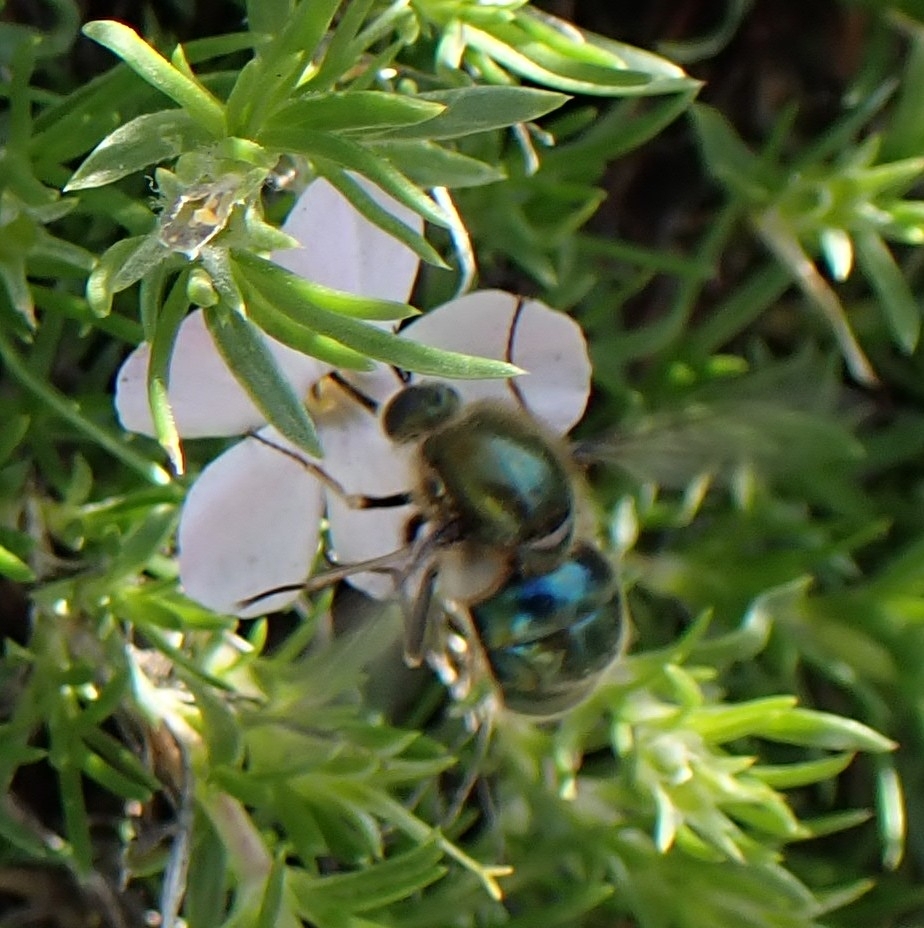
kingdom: Animalia
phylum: Arthropoda
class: Insecta
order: Diptera
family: Acroceridae
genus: Eulonchus
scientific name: Eulonchus tristis
